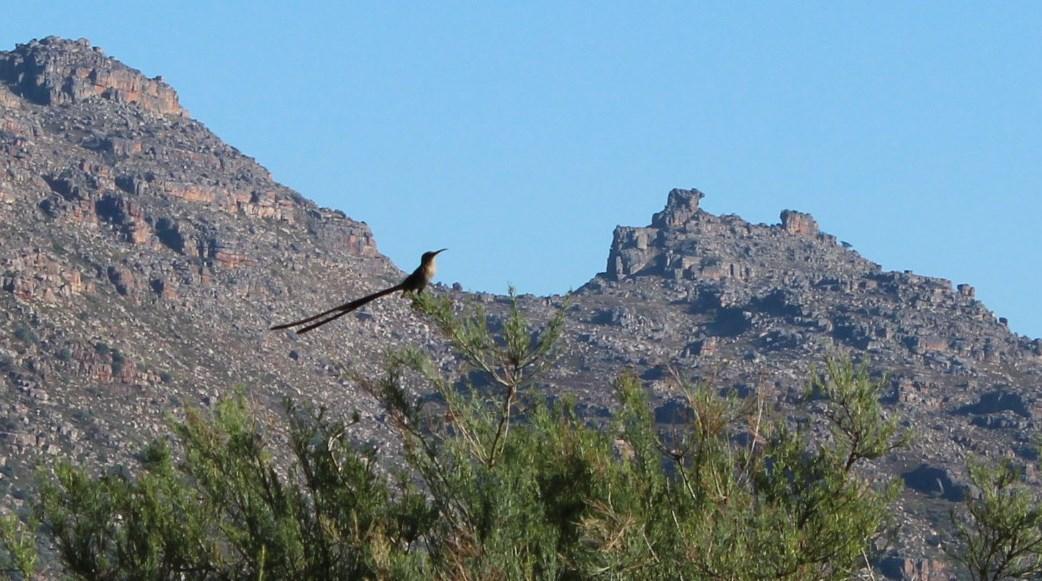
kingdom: Animalia
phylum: Chordata
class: Aves
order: Passeriformes
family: Promeropidae
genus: Promerops
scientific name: Promerops cafer
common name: Cape sugarbird
